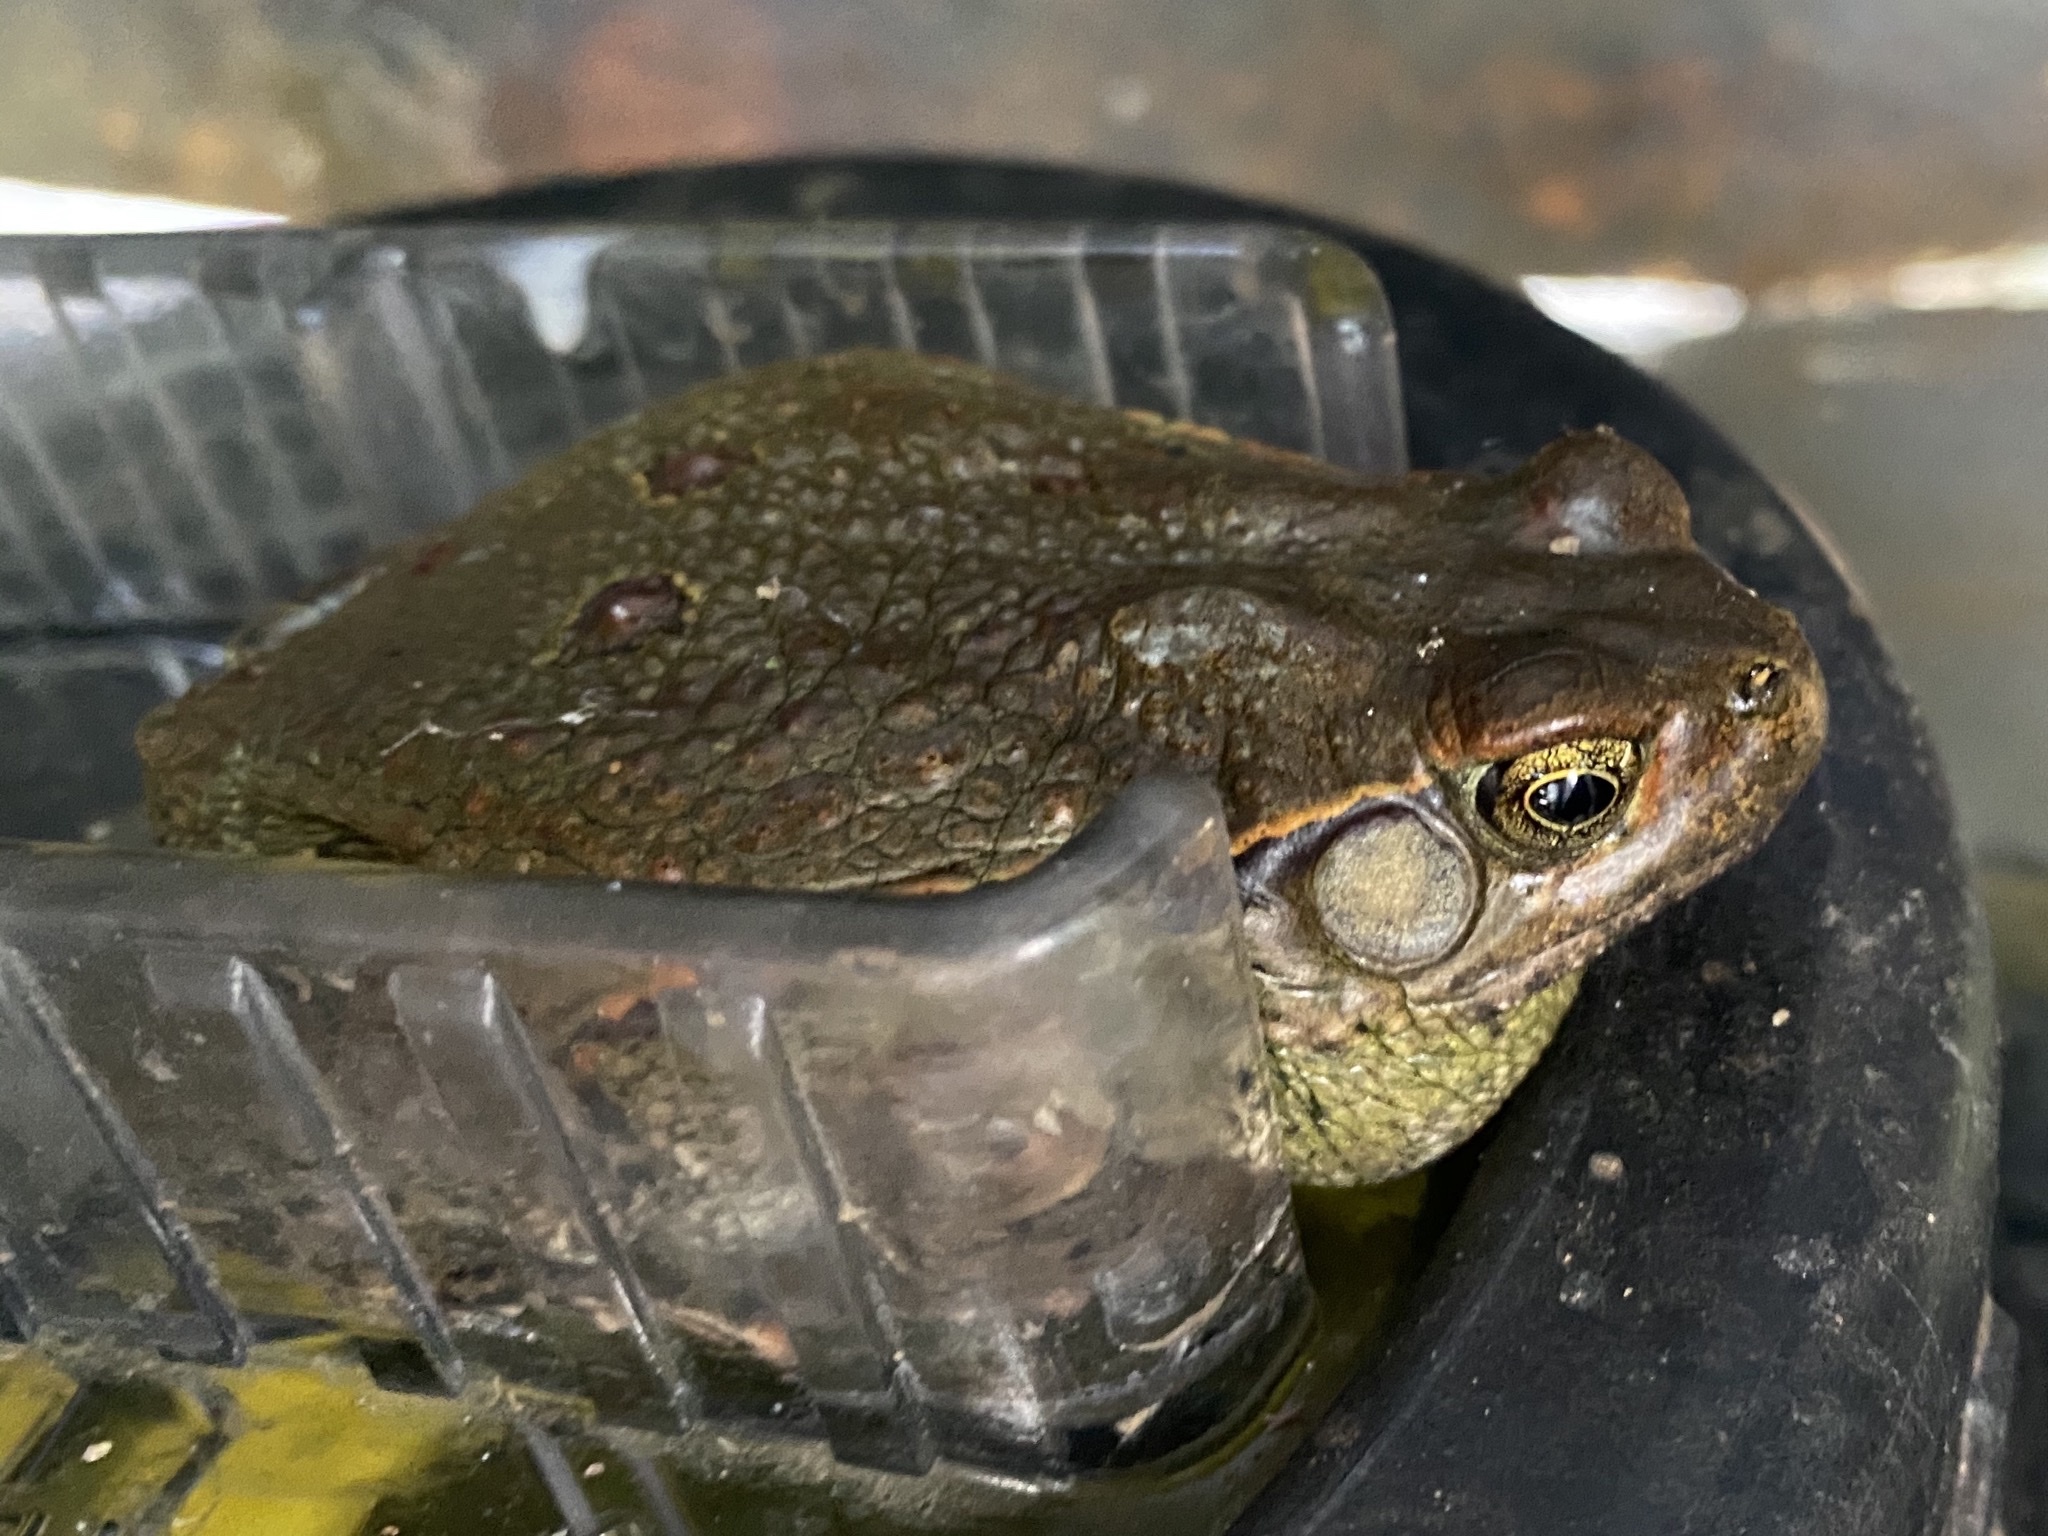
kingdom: Animalia
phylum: Chordata
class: Amphibia
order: Anura
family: Bufonidae
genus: Schismaderma
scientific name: Schismaderma carens
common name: African split-skin toad
